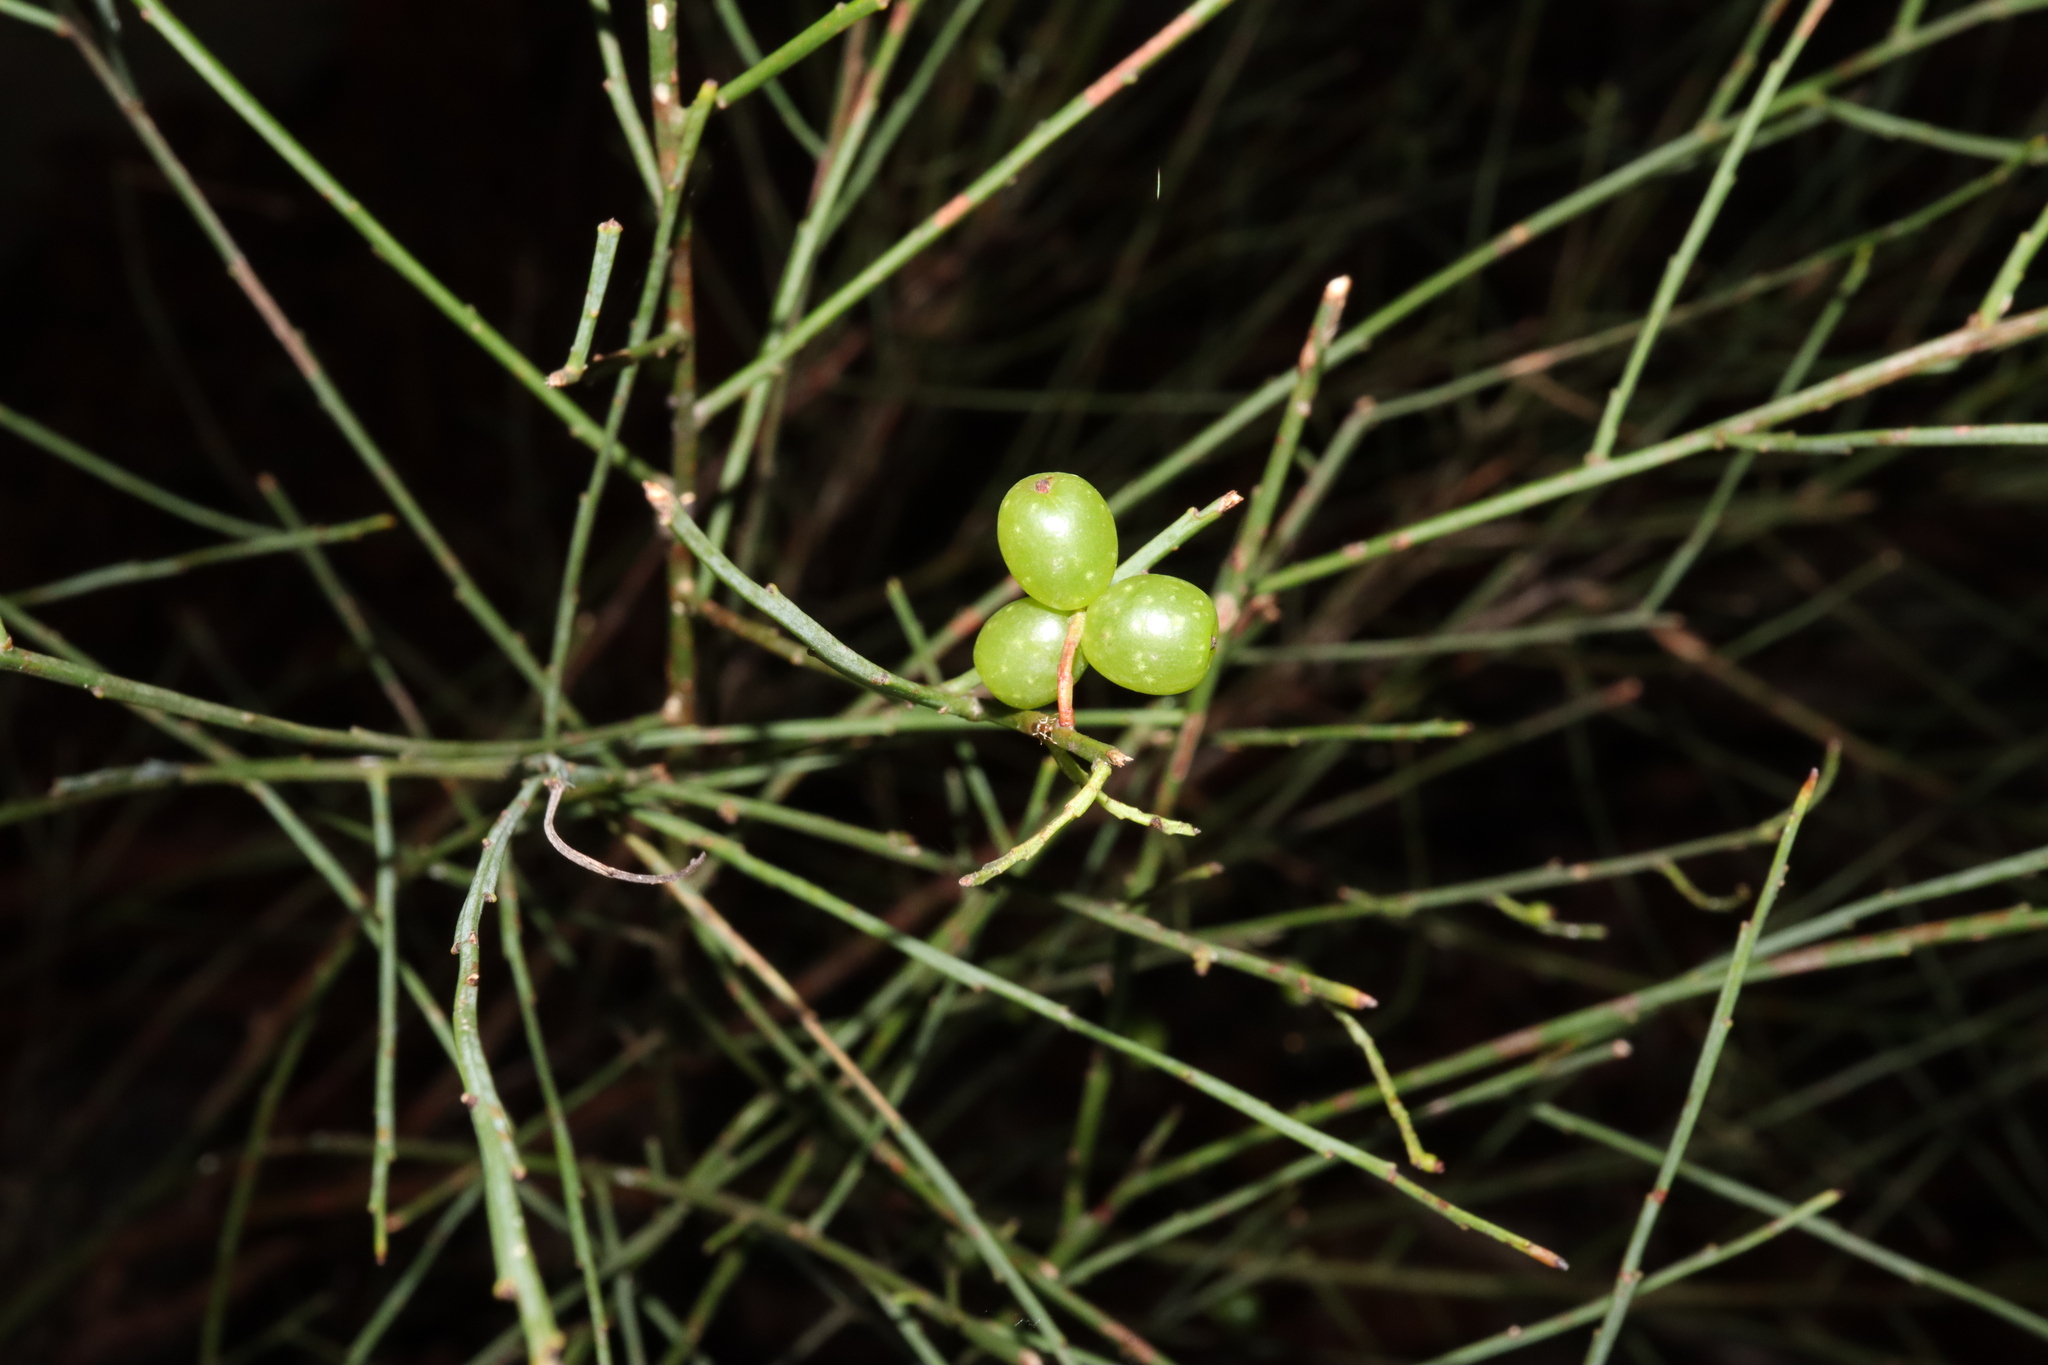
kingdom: Plantae
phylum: Tracheophyta
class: Magnoliopsida
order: Santalales
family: Amphorogynaceae
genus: Leptomeria
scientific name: Leptomeria acida
